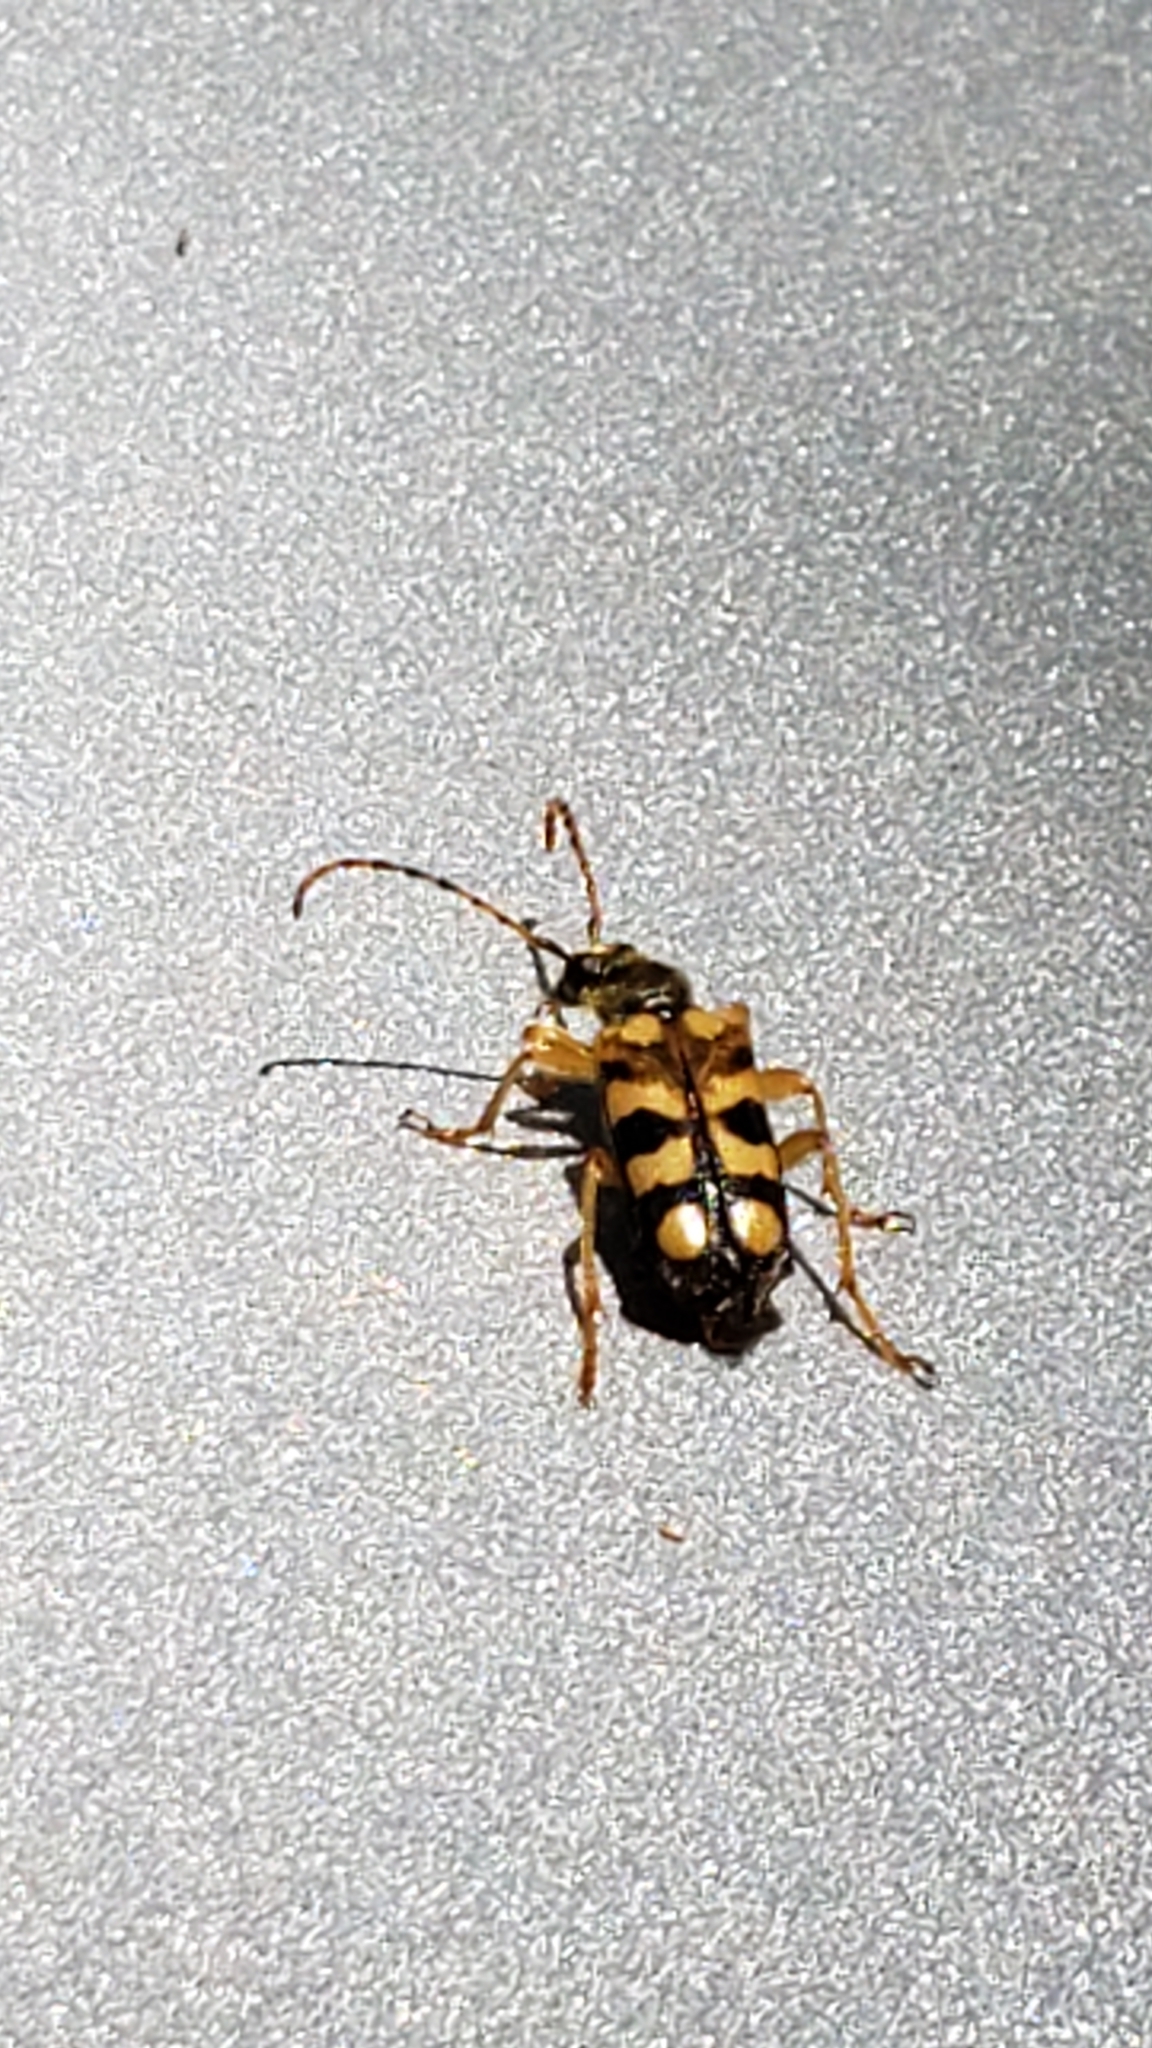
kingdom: Animalia
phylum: Arthropoda
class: Insecta
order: Coleoptera
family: Cerambycidae
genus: Xestoleptura
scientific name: Xestoleptura crassipes
